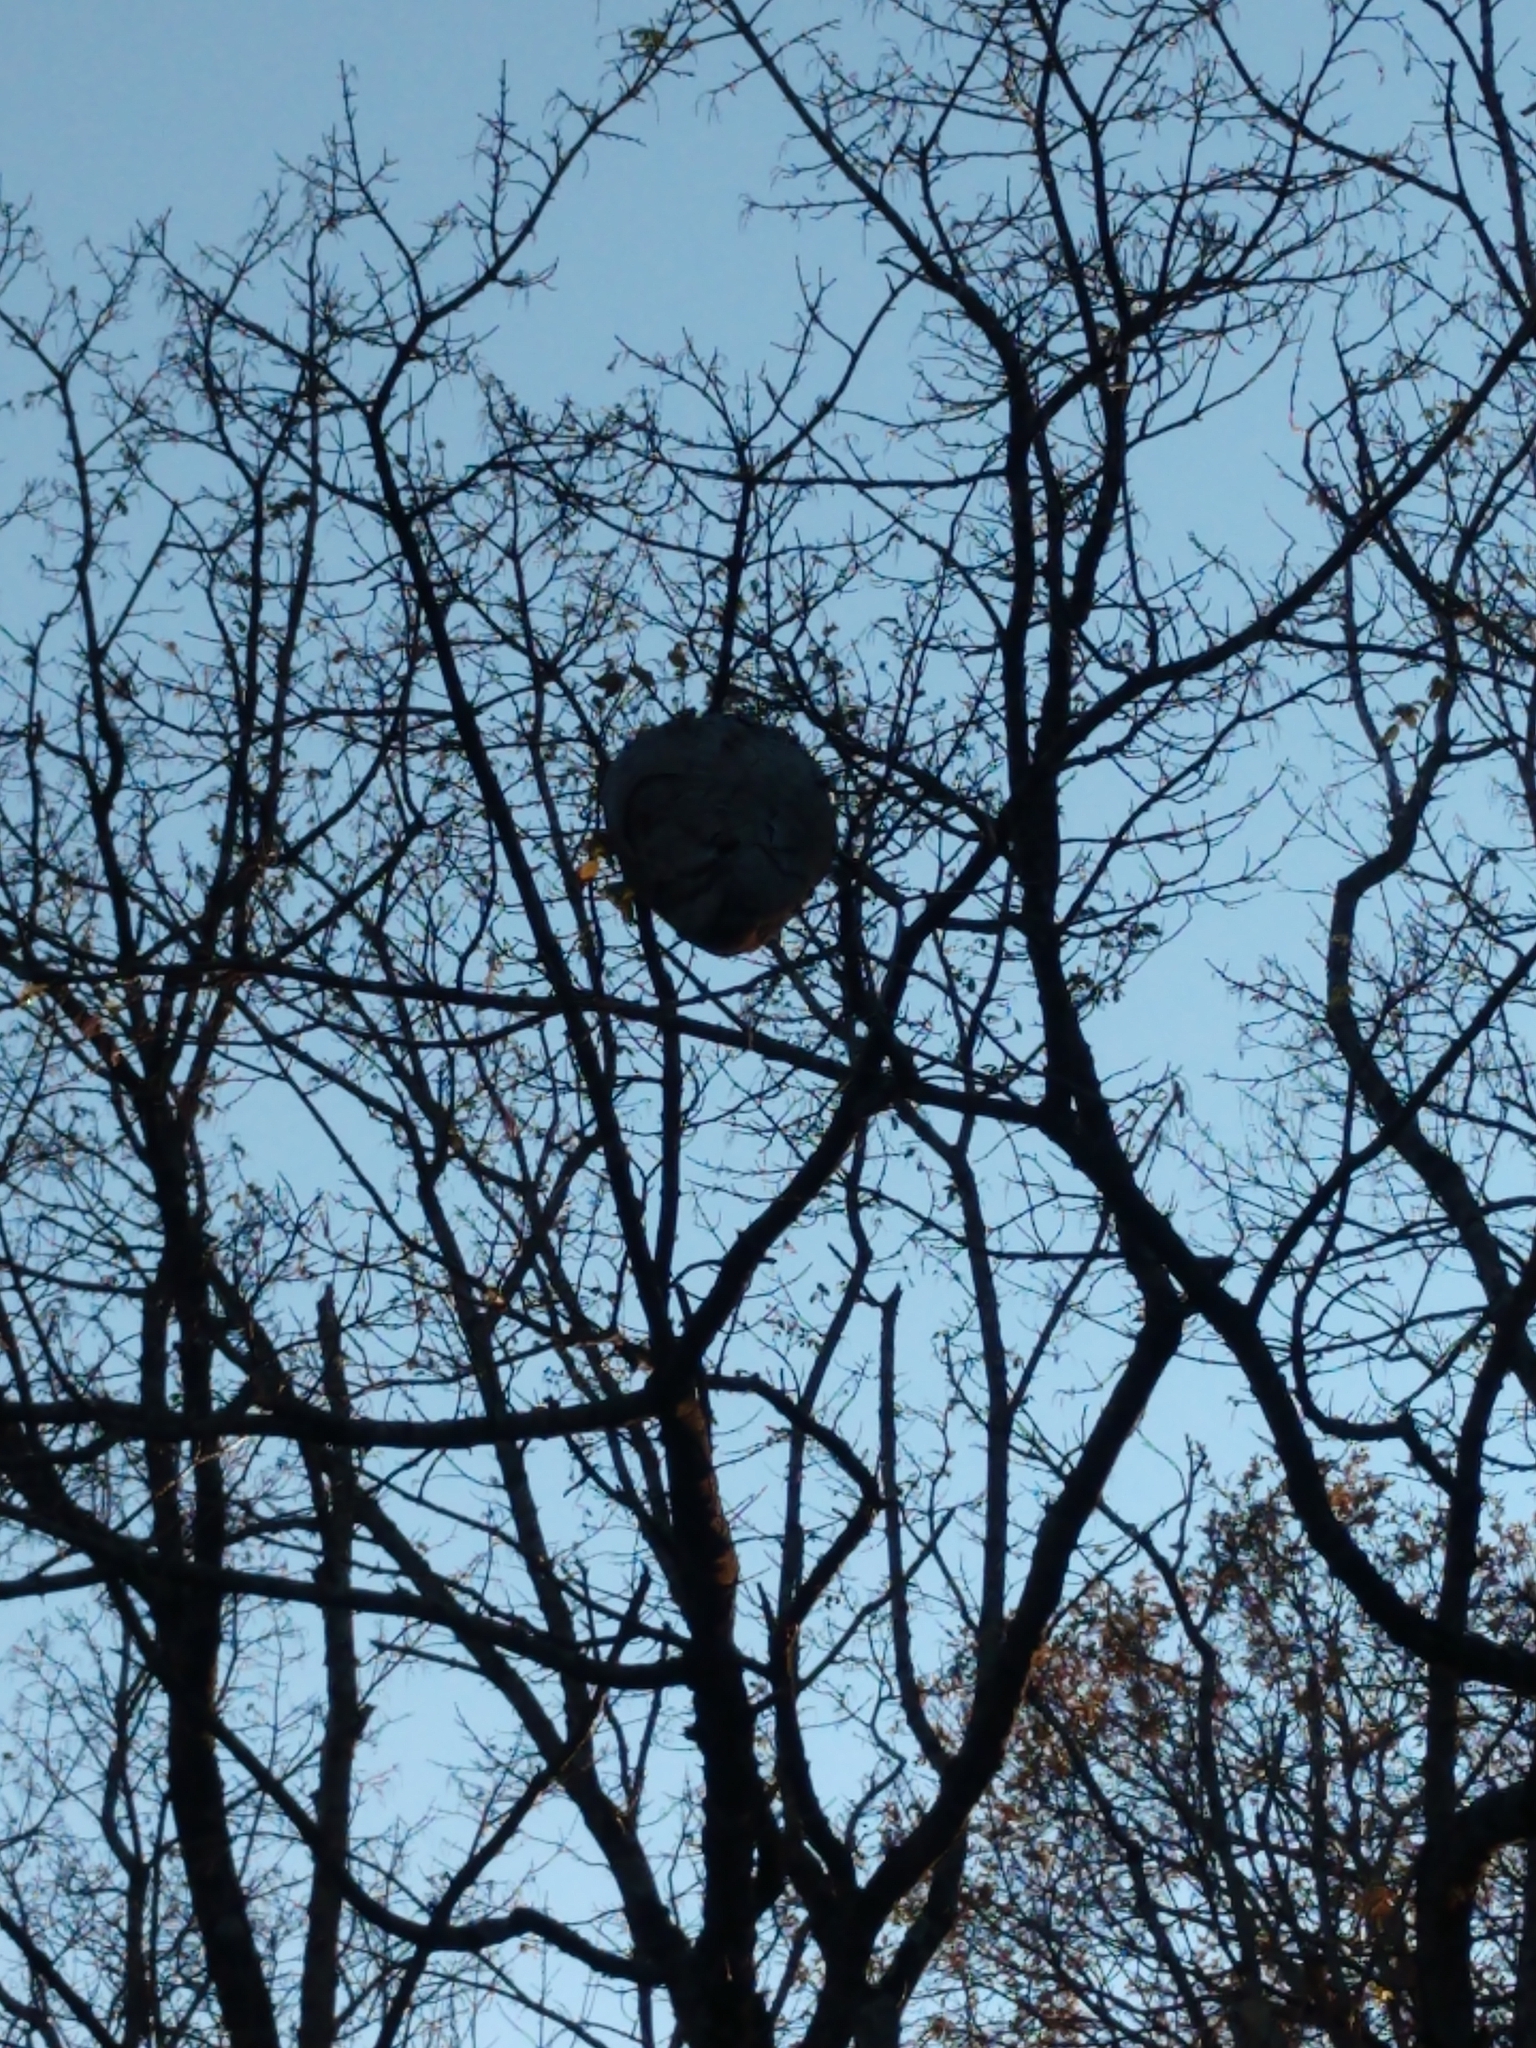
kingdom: Animalia
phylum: Arthropoda
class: Insecta
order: Hymenoptera
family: Vespidae
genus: Dolichovespula
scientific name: Dolichovespula maculata
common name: Bald-faced hornet
